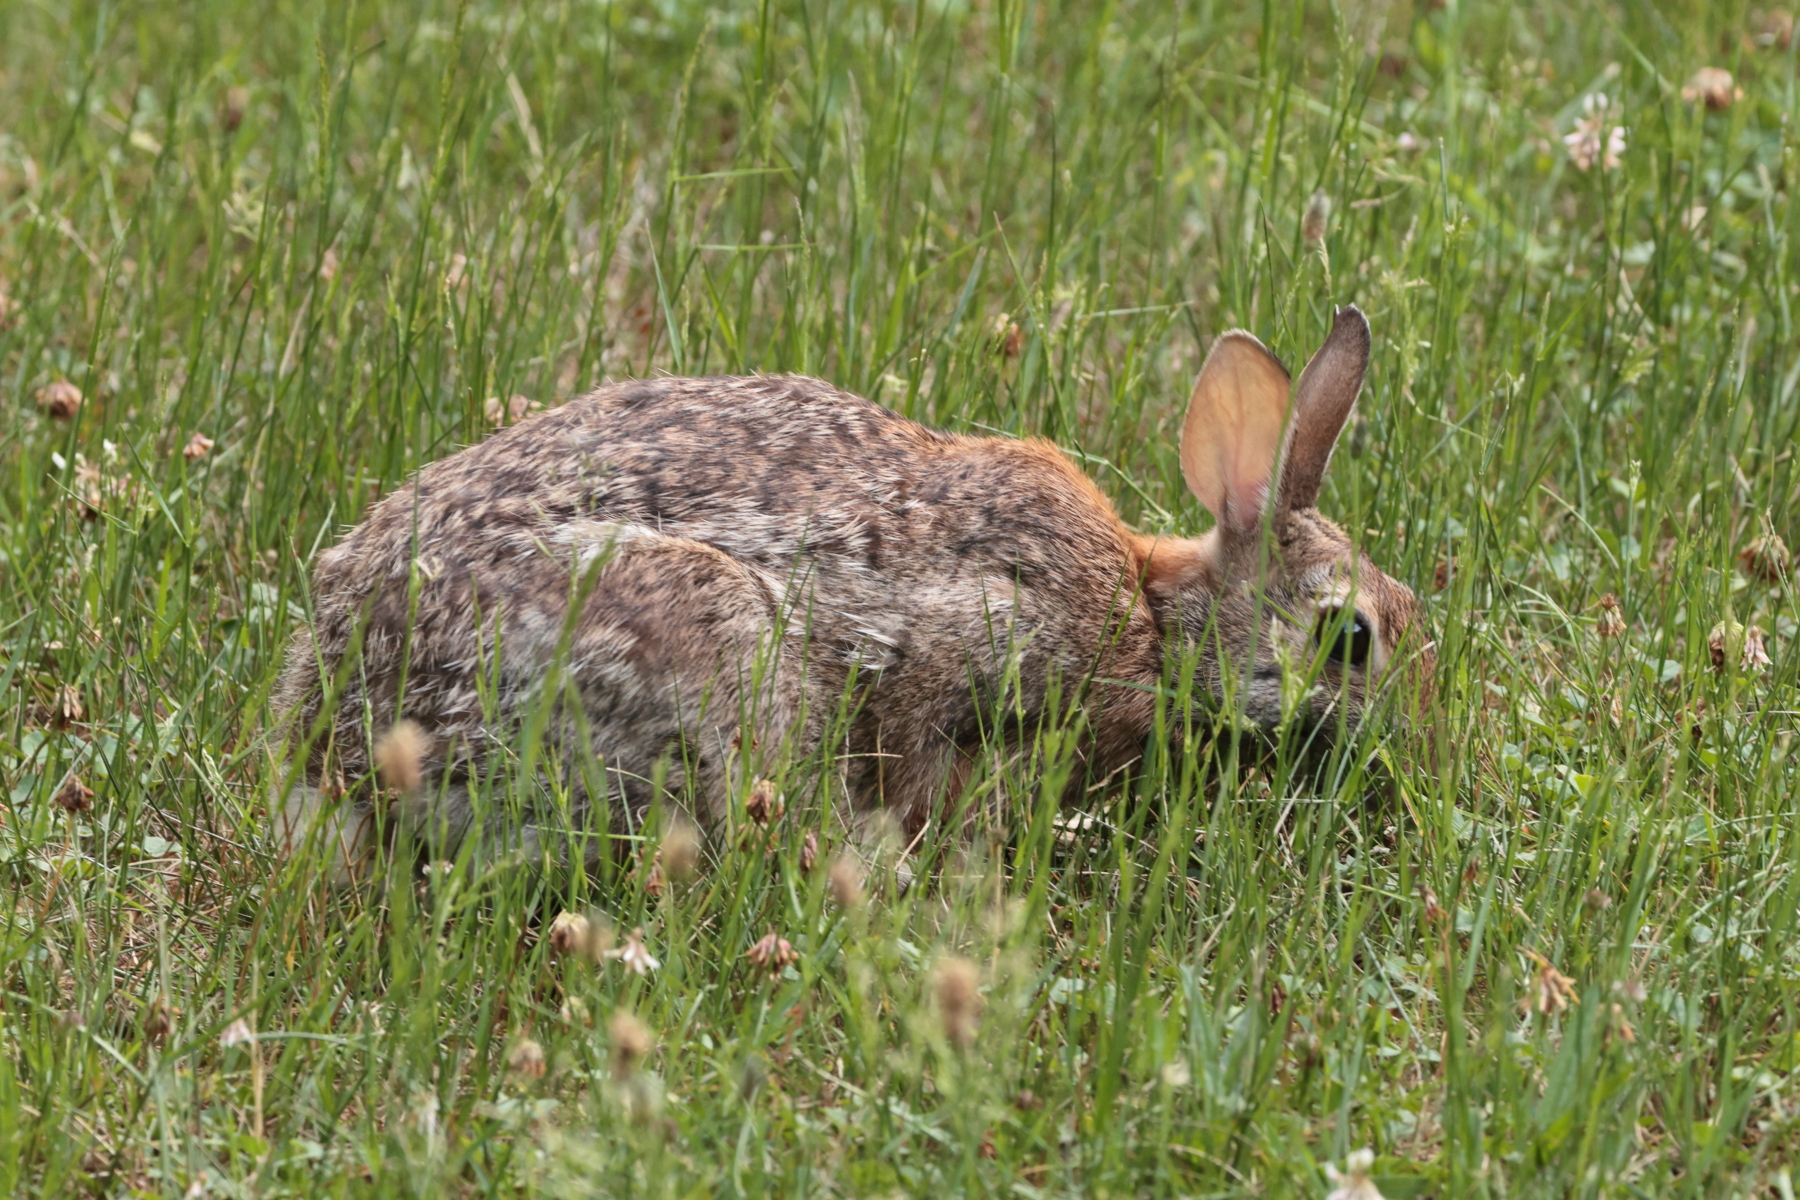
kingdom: Animalia
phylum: Chordata
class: Mammalia
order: Lagomorpha
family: Leporidae
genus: Sylvilagus
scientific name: Sylvilagus floridanus
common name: Eastern cottontail
